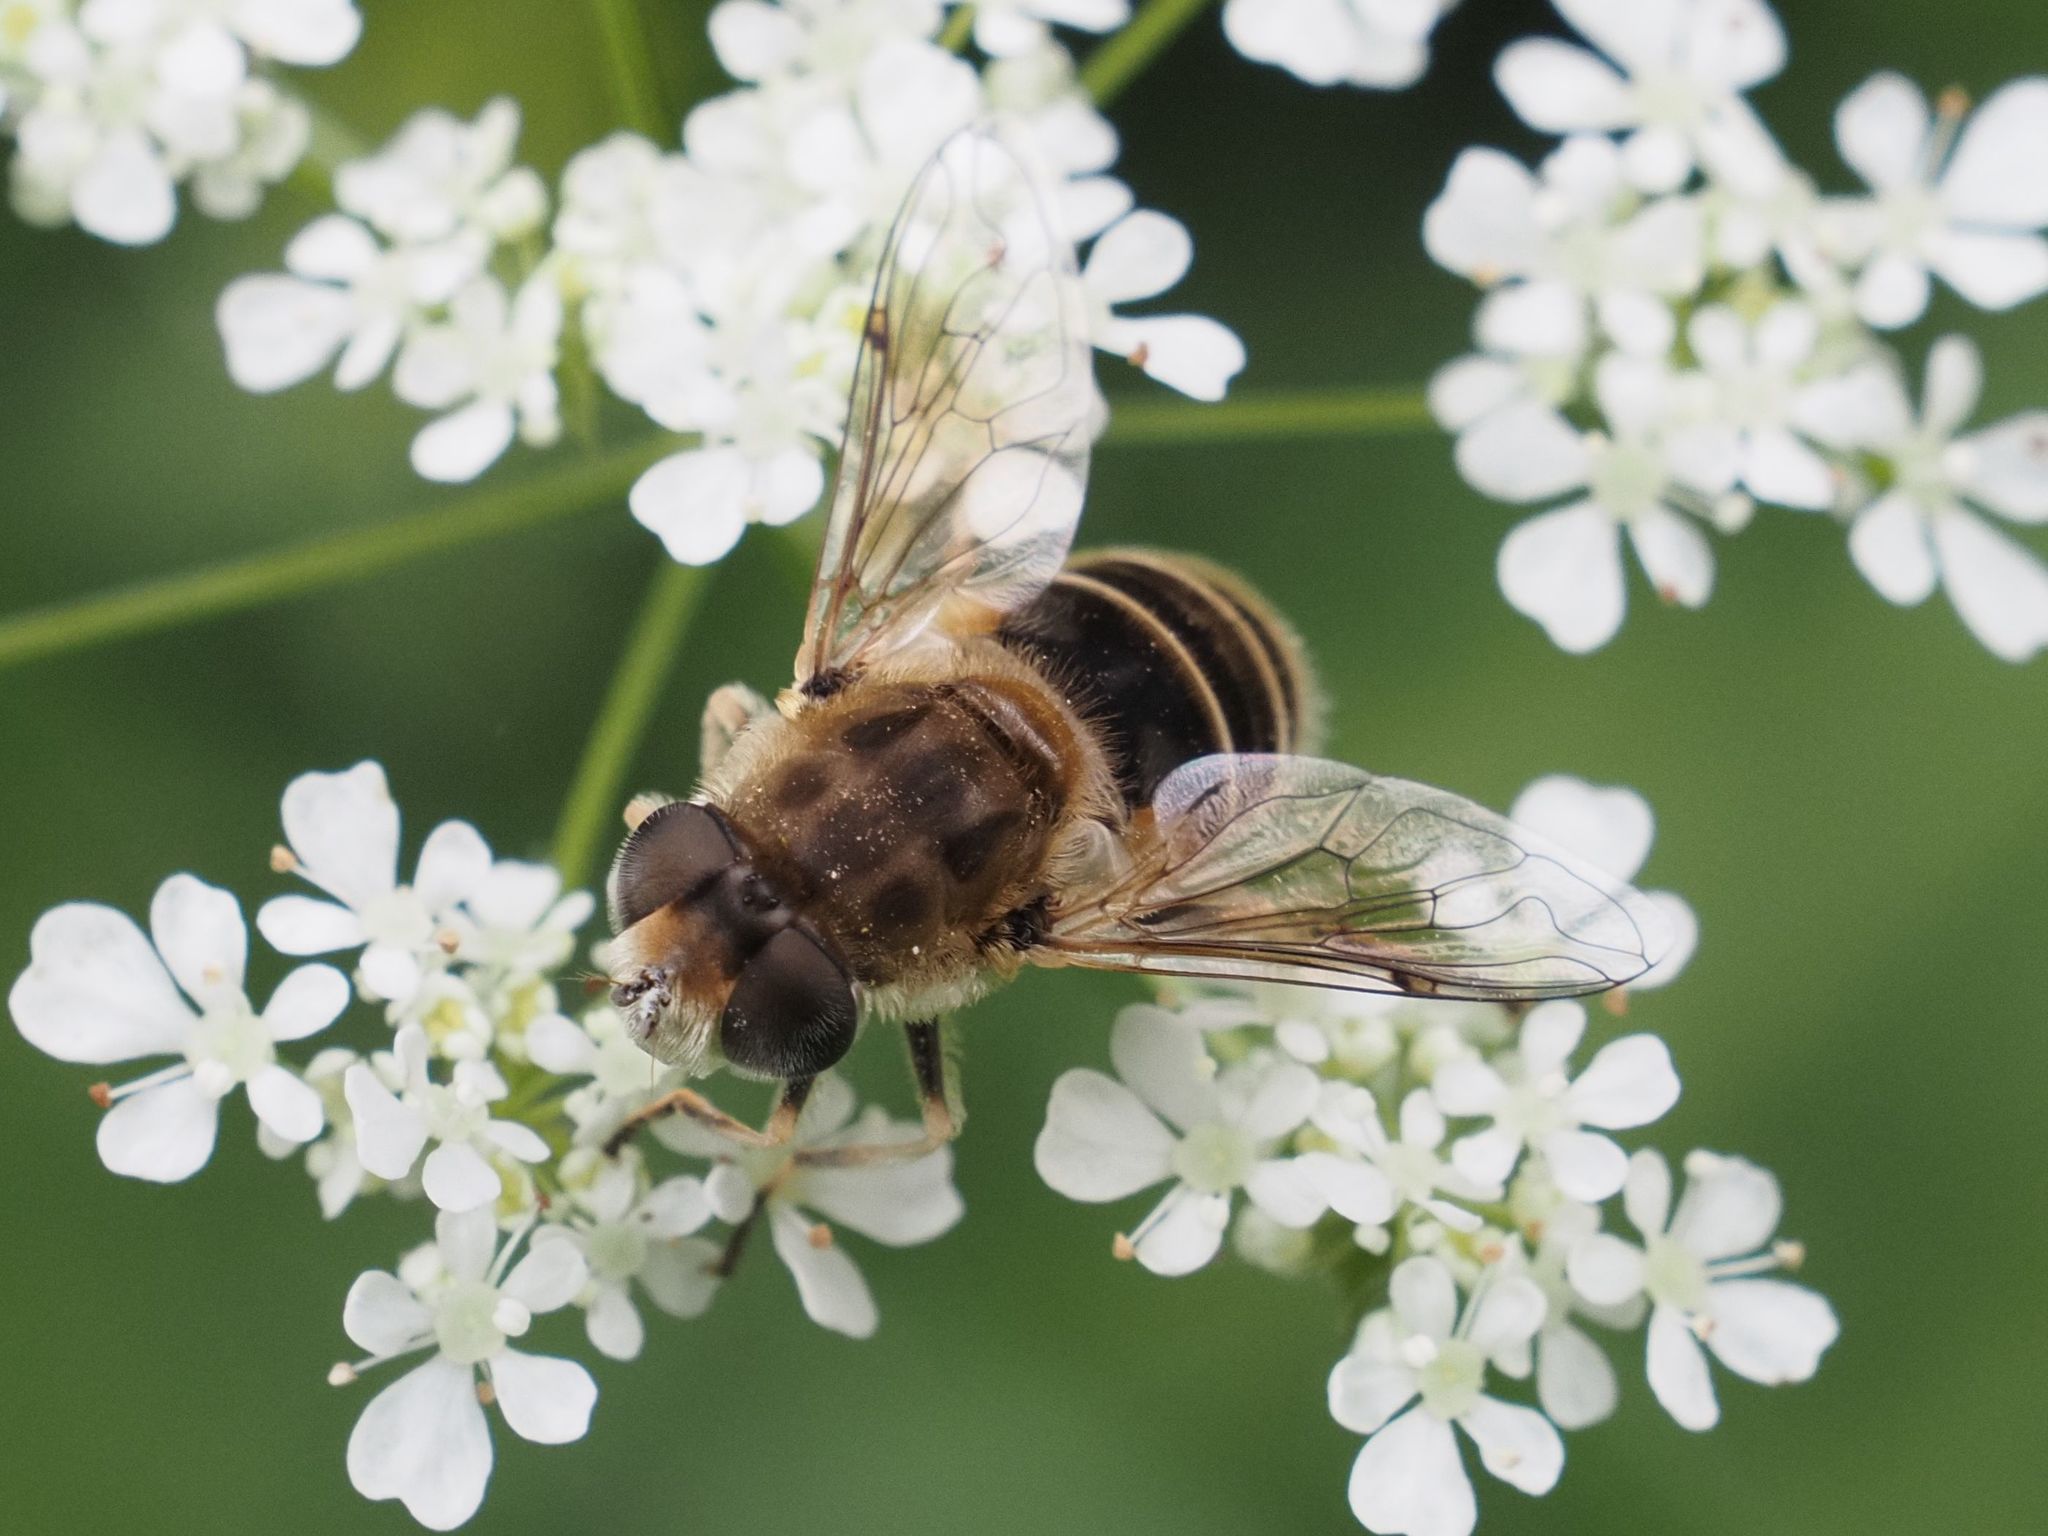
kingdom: Animalia
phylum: Arthropoda
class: Insecta
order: Diptera
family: Syrphidae
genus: Eristalis
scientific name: Eristalis arbustorum
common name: Hover fly
